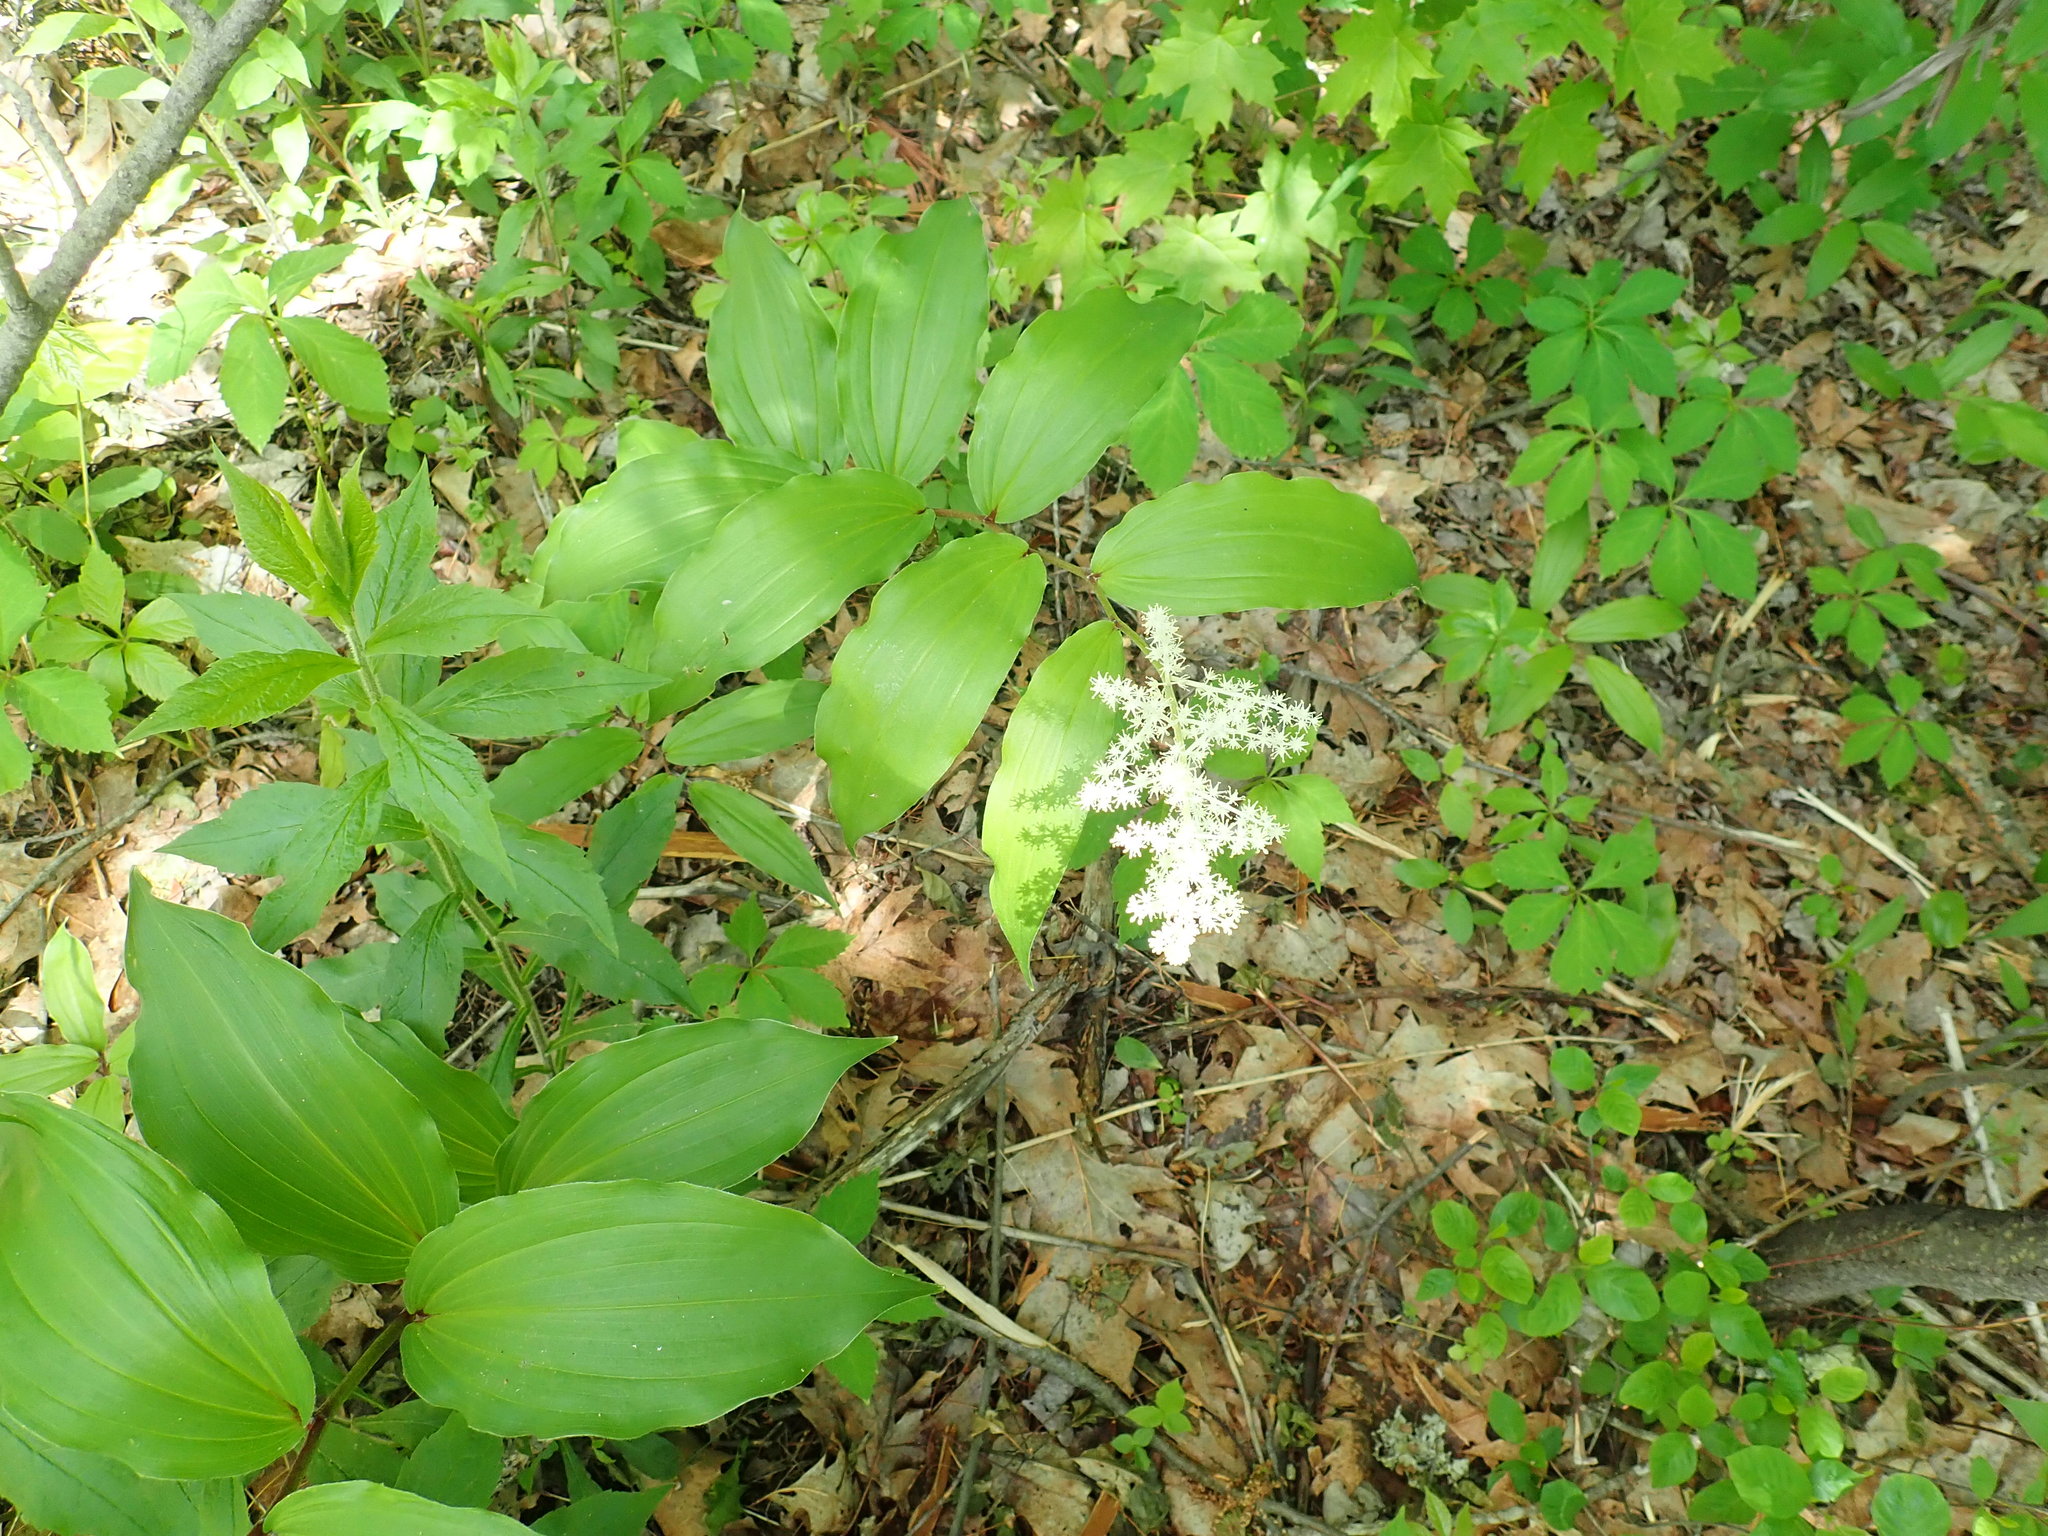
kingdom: Plantae
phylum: Tracheophyta
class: Liliopsida
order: Asparagales
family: Asparagaceae
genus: Maianthemum
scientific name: Maianthemum racemosum
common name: False spikenard
